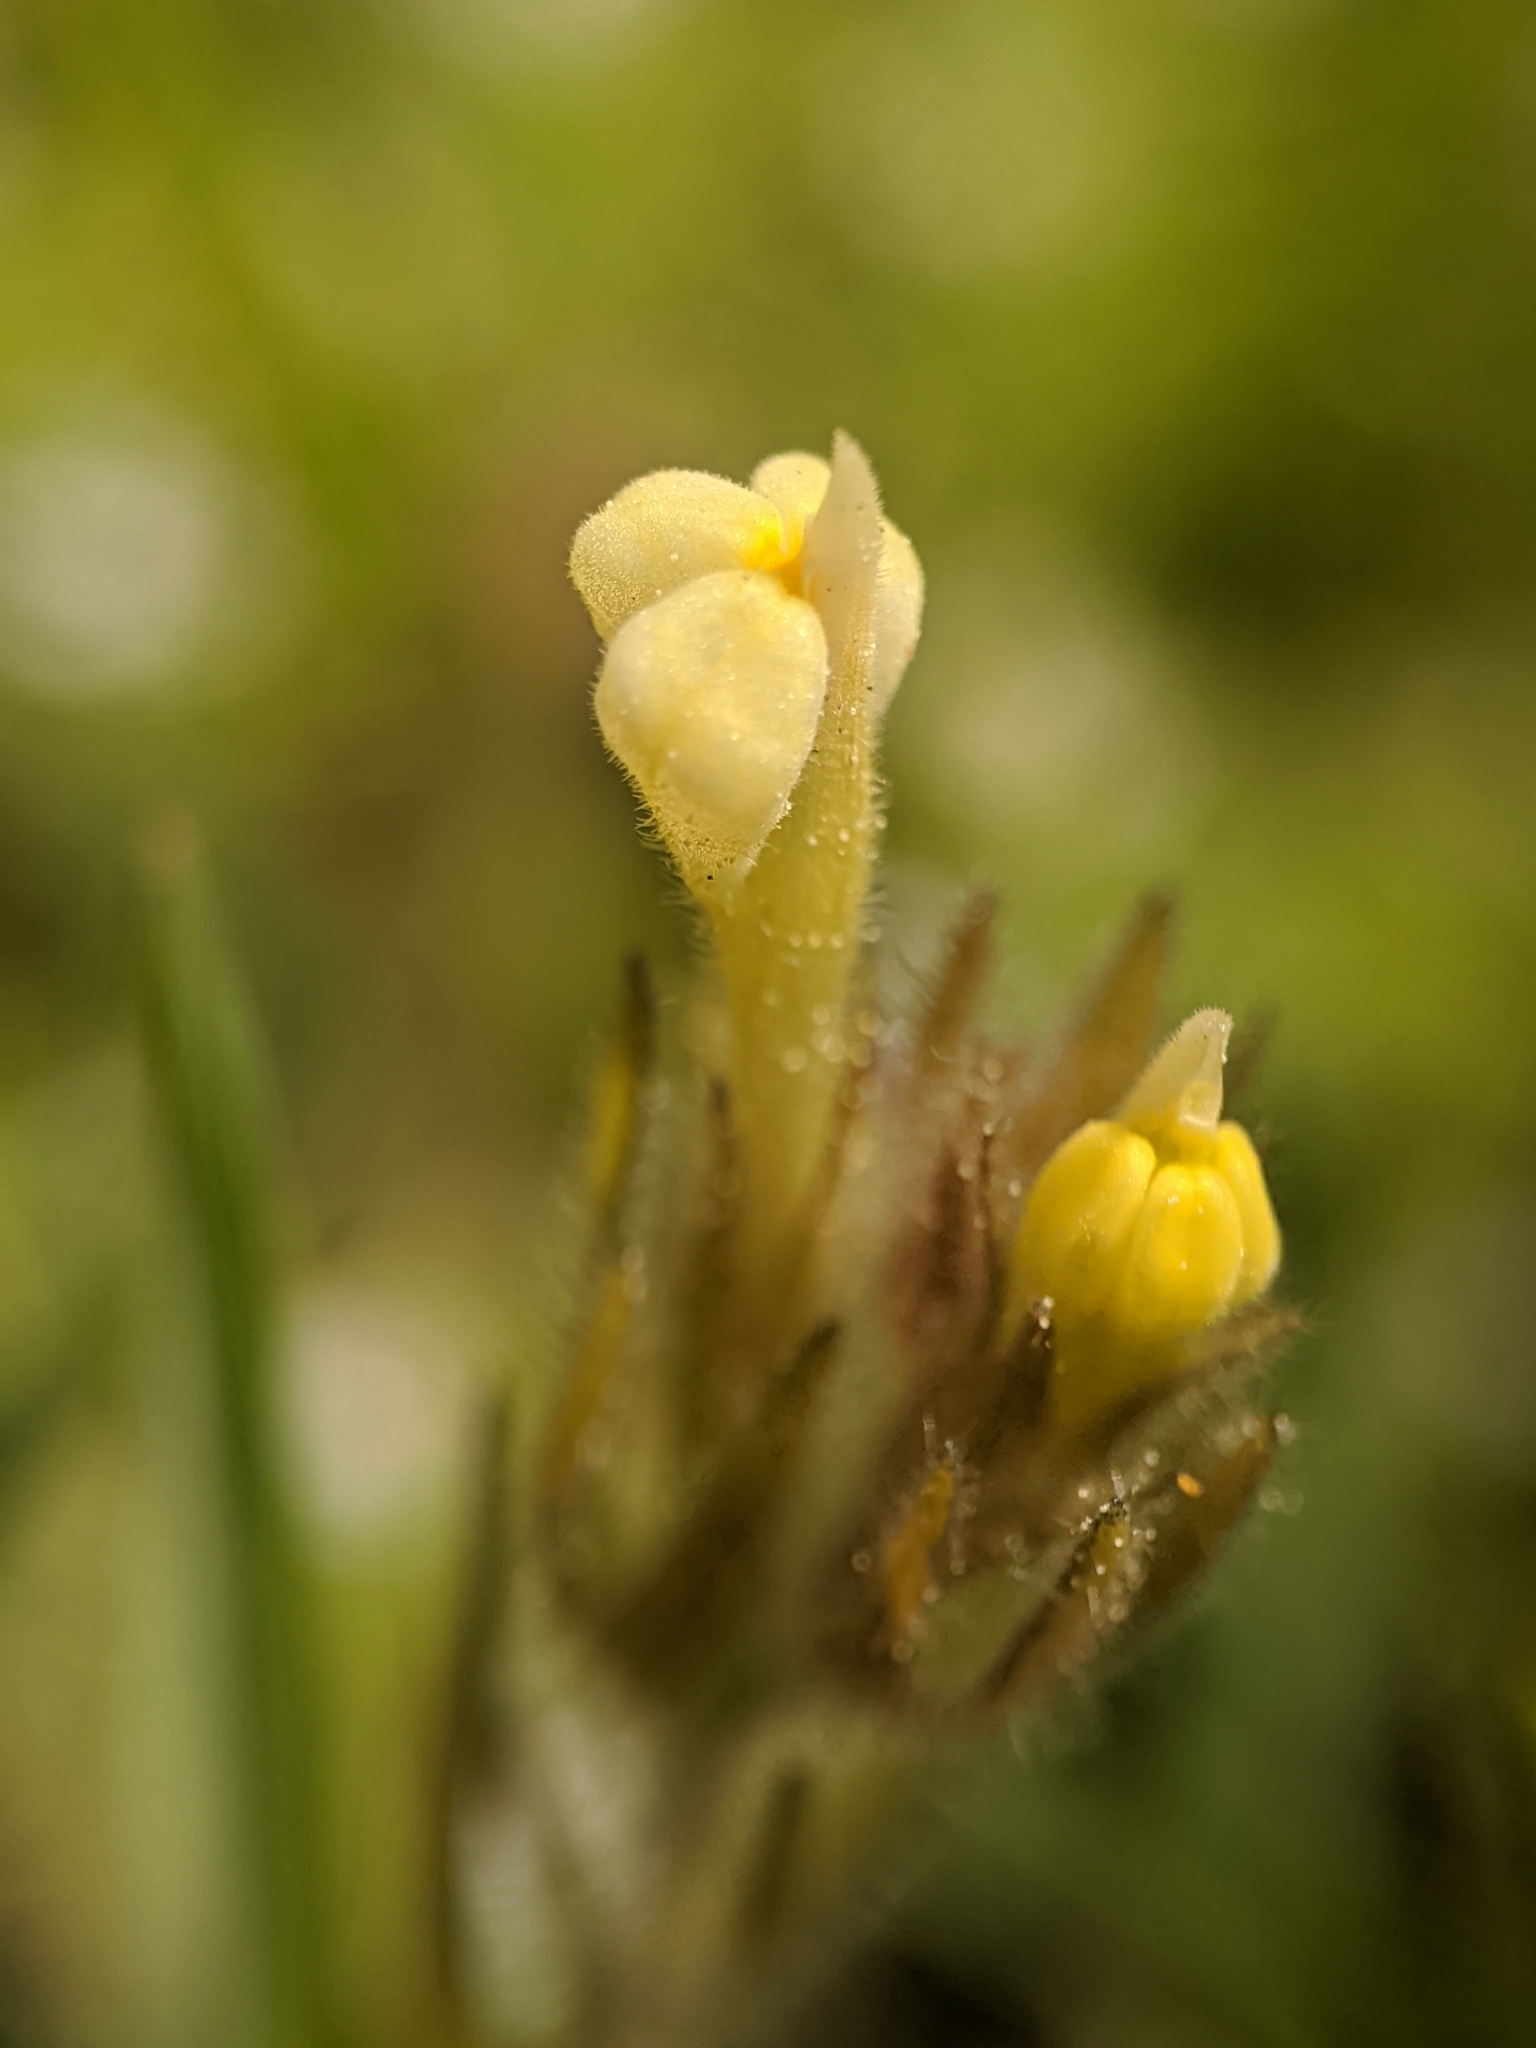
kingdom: Plantae
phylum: Tracheophyta
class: Magnoliopsida
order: Lamiales
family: Orobanchaceae
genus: Castilleja
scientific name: Castilleja tenuis
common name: Hairy indian paintbrush
